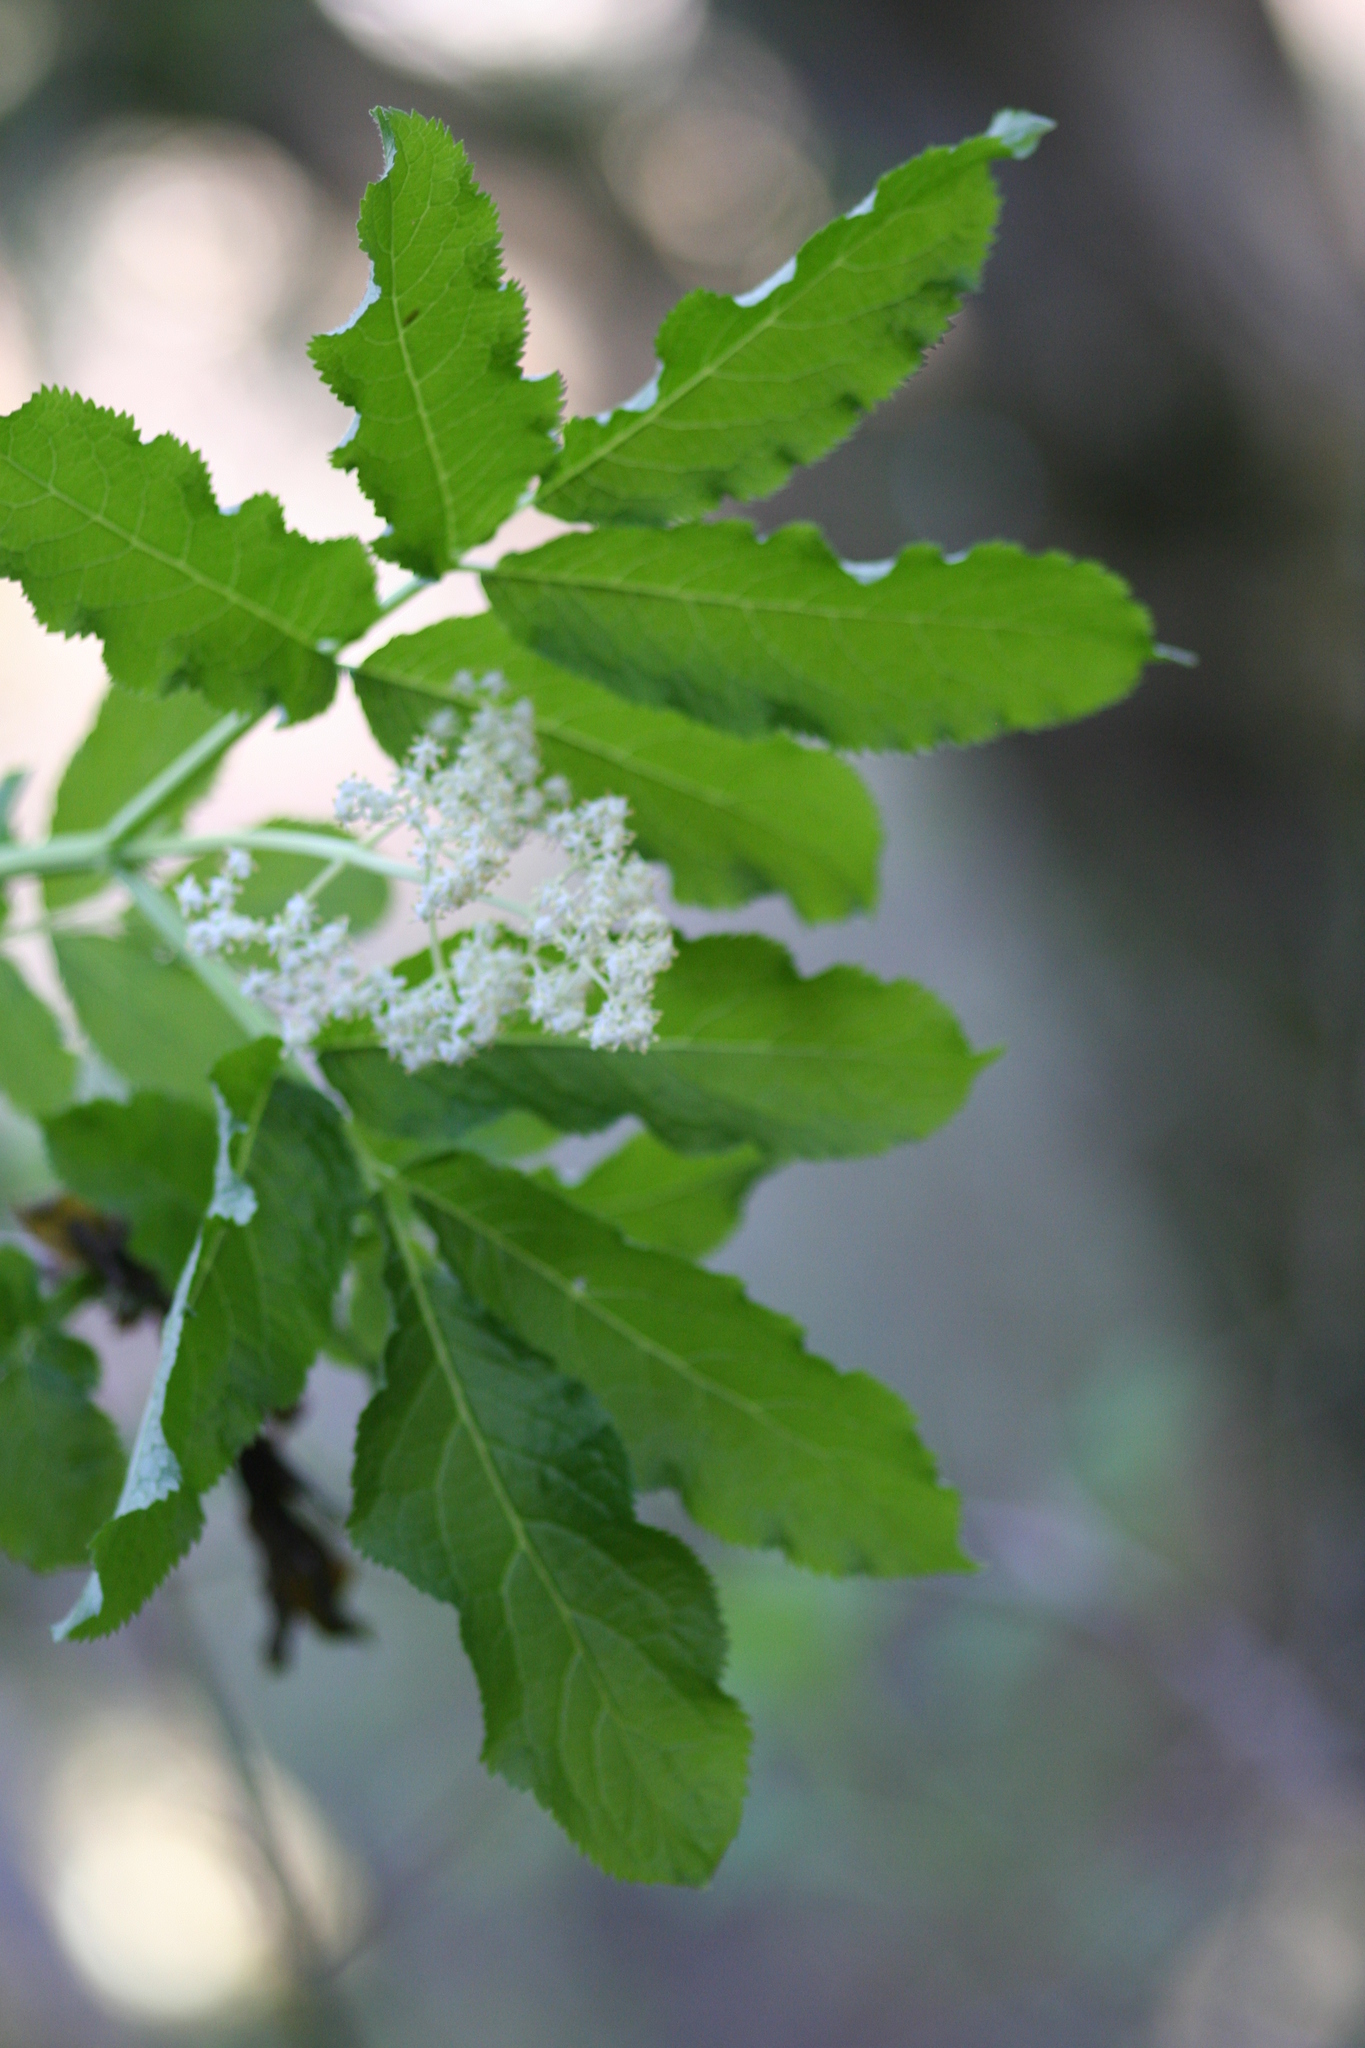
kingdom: Plantae
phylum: Tracheophyta
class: Magnoliopsida
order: Dipsacales
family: Viburnaceae
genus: Sambucus
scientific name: Sambucus racemosa
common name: Red-berried elder
